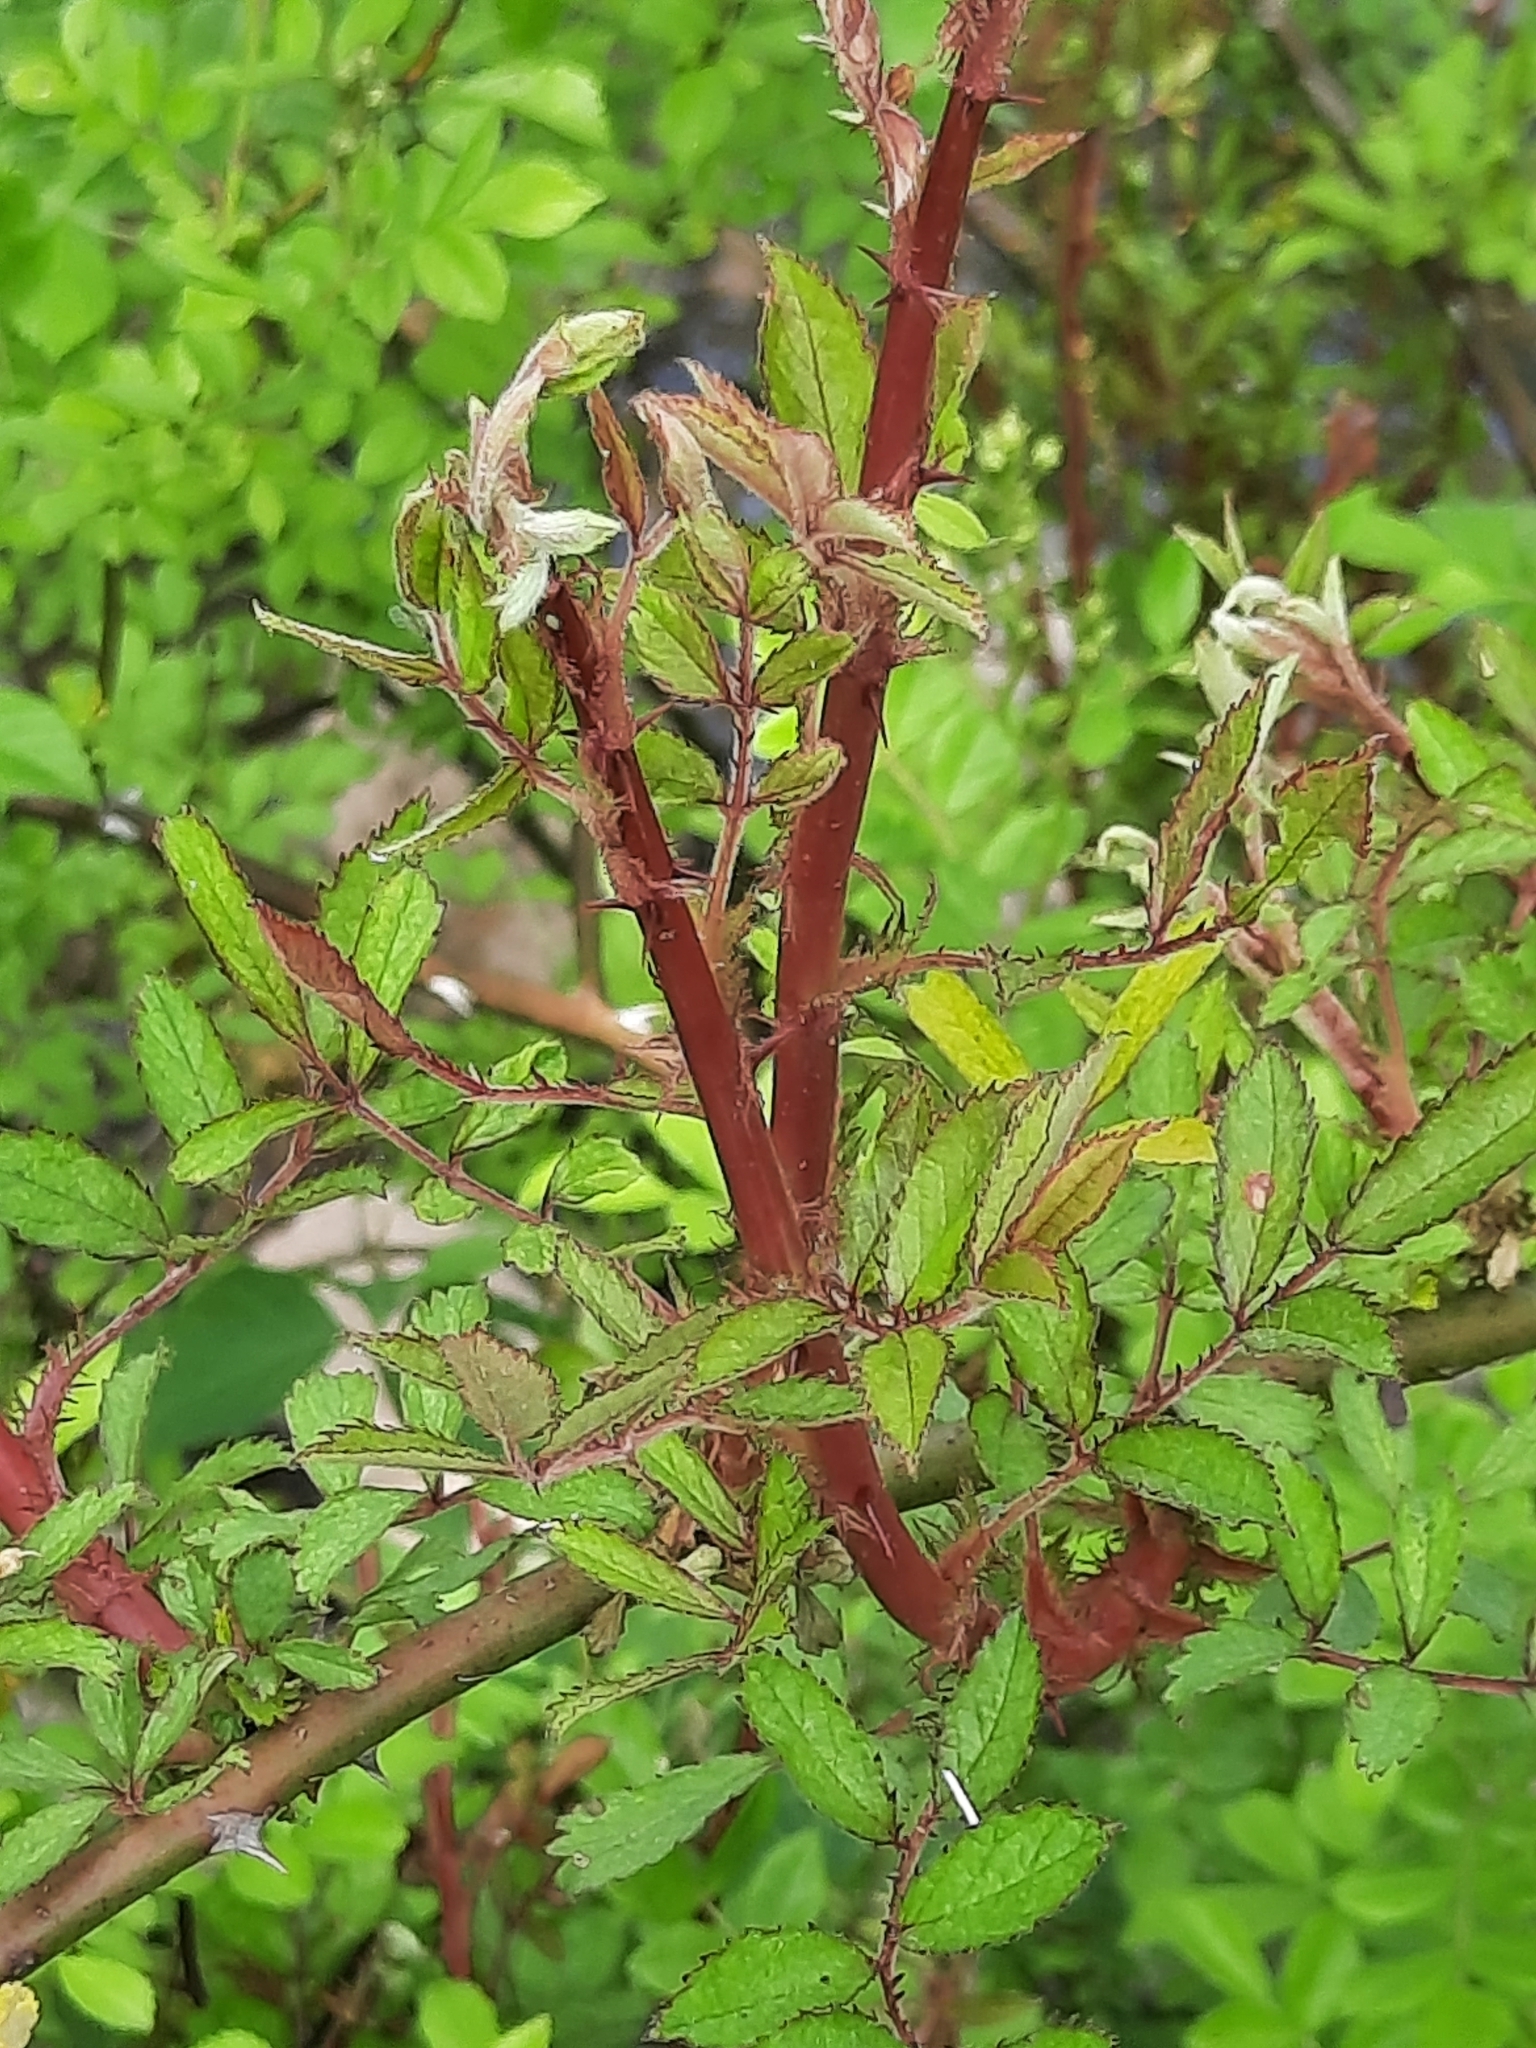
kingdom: Viruses
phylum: Negarnaviricota
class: Ellioviricetes
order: Bunyavirales
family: Fimoviridae
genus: Emaravirus
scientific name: Emaravirus rosae
